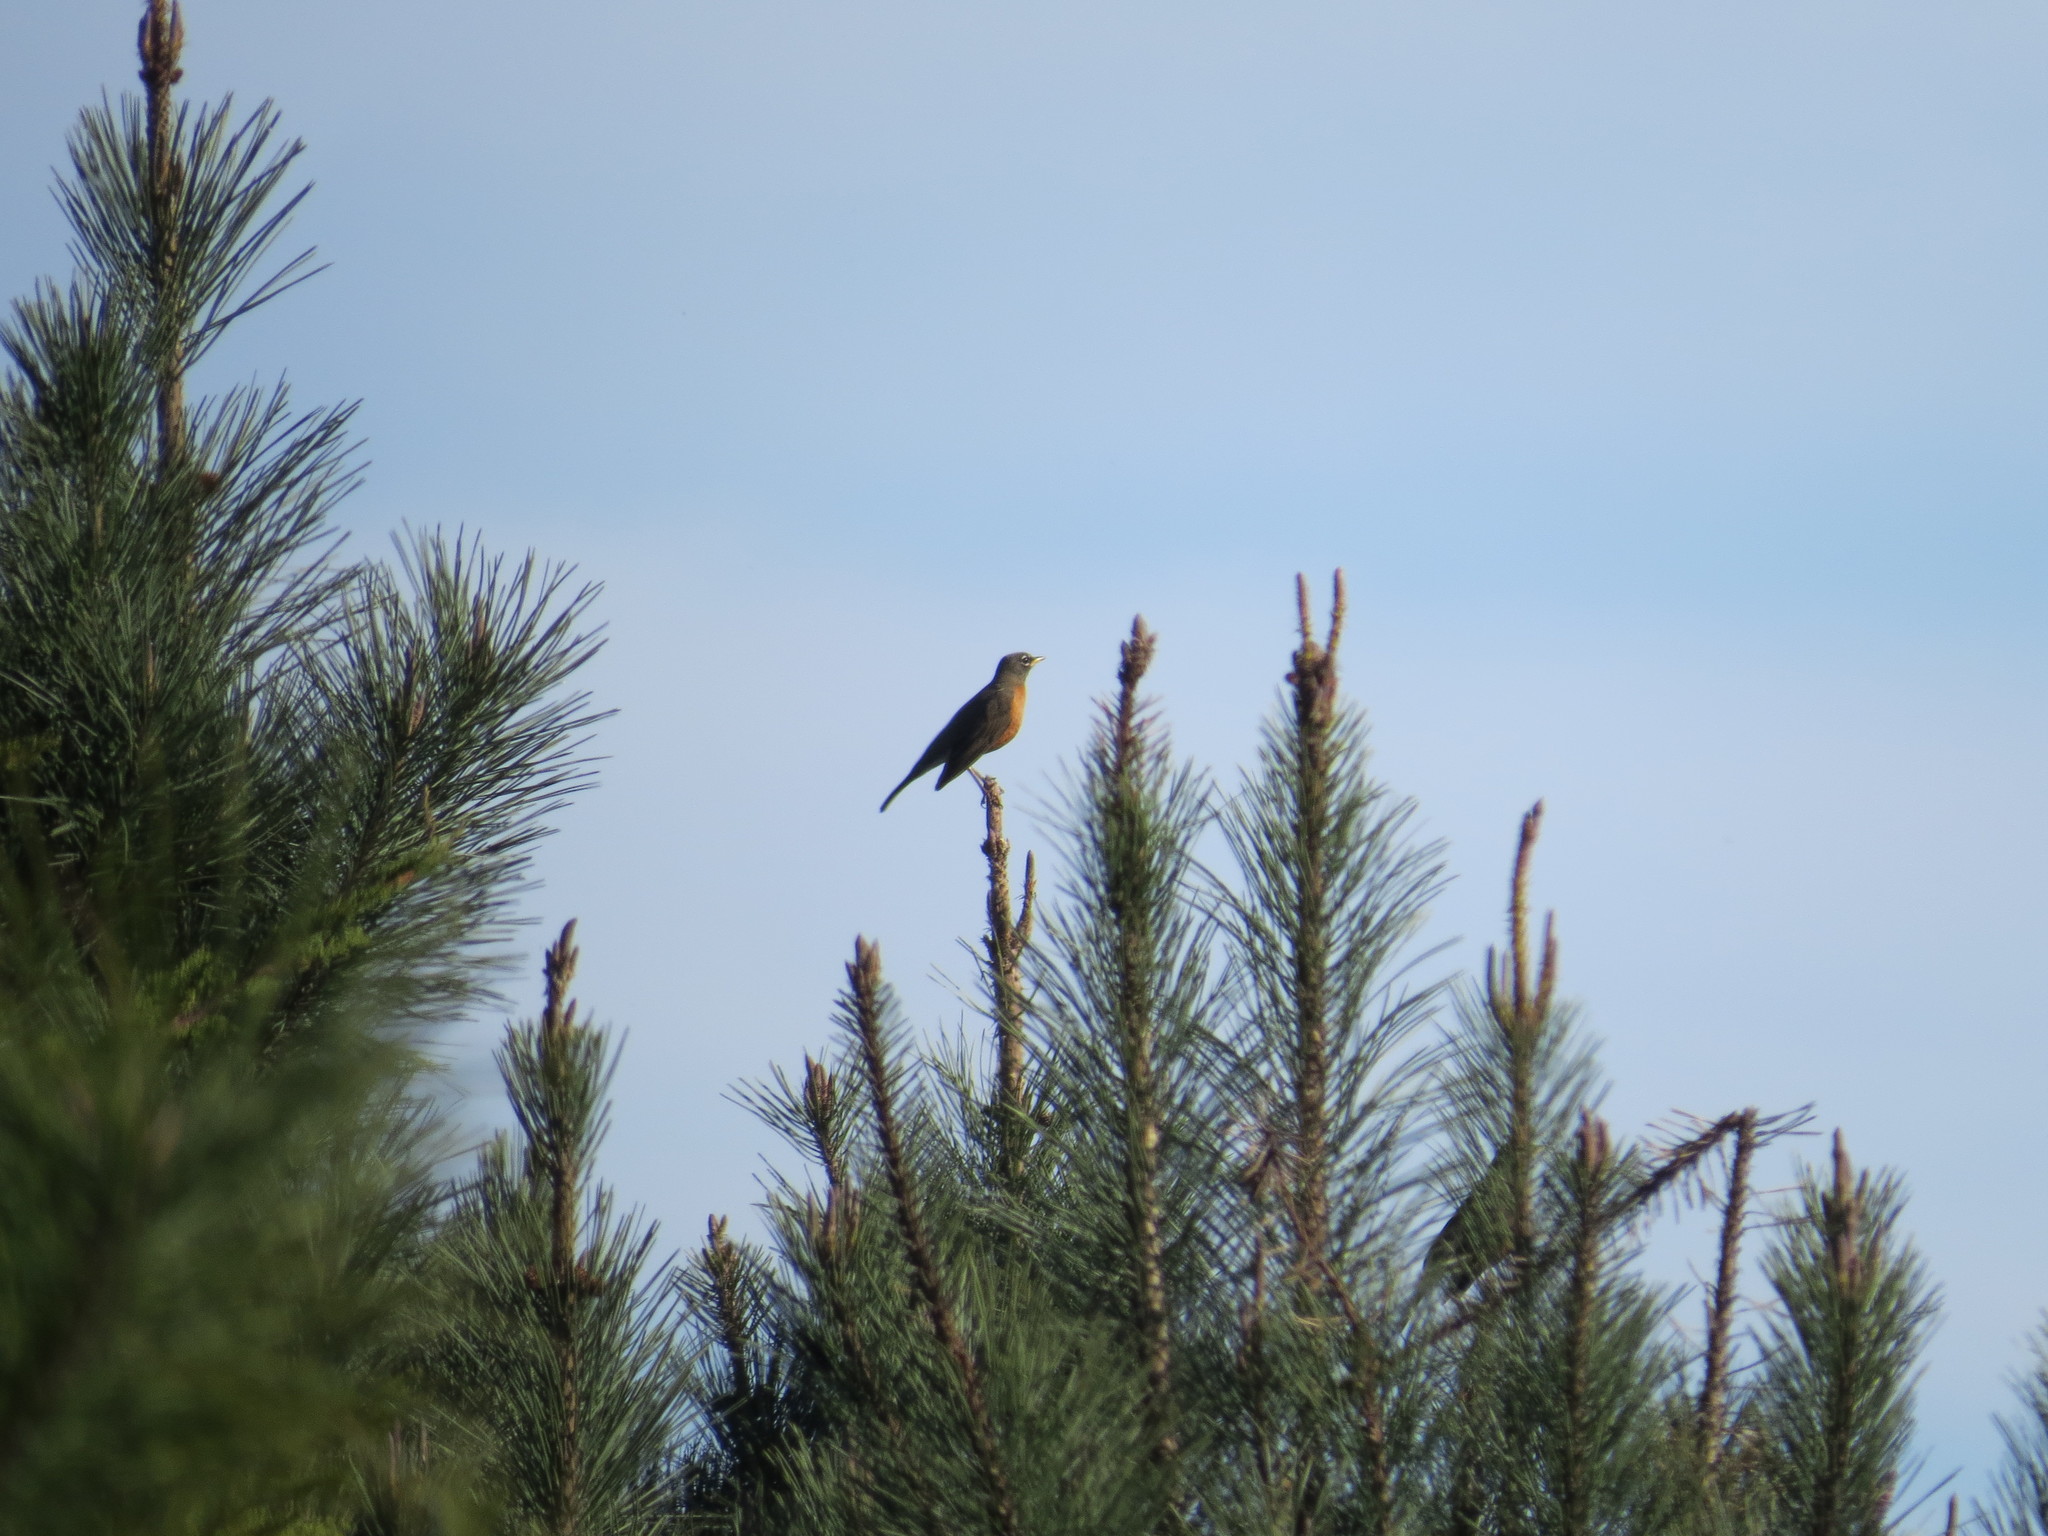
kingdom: Animalia
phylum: Chordata
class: Aves
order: Passeriformes
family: Turdidae
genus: Turdus
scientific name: Turdus migratorius
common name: American robin
